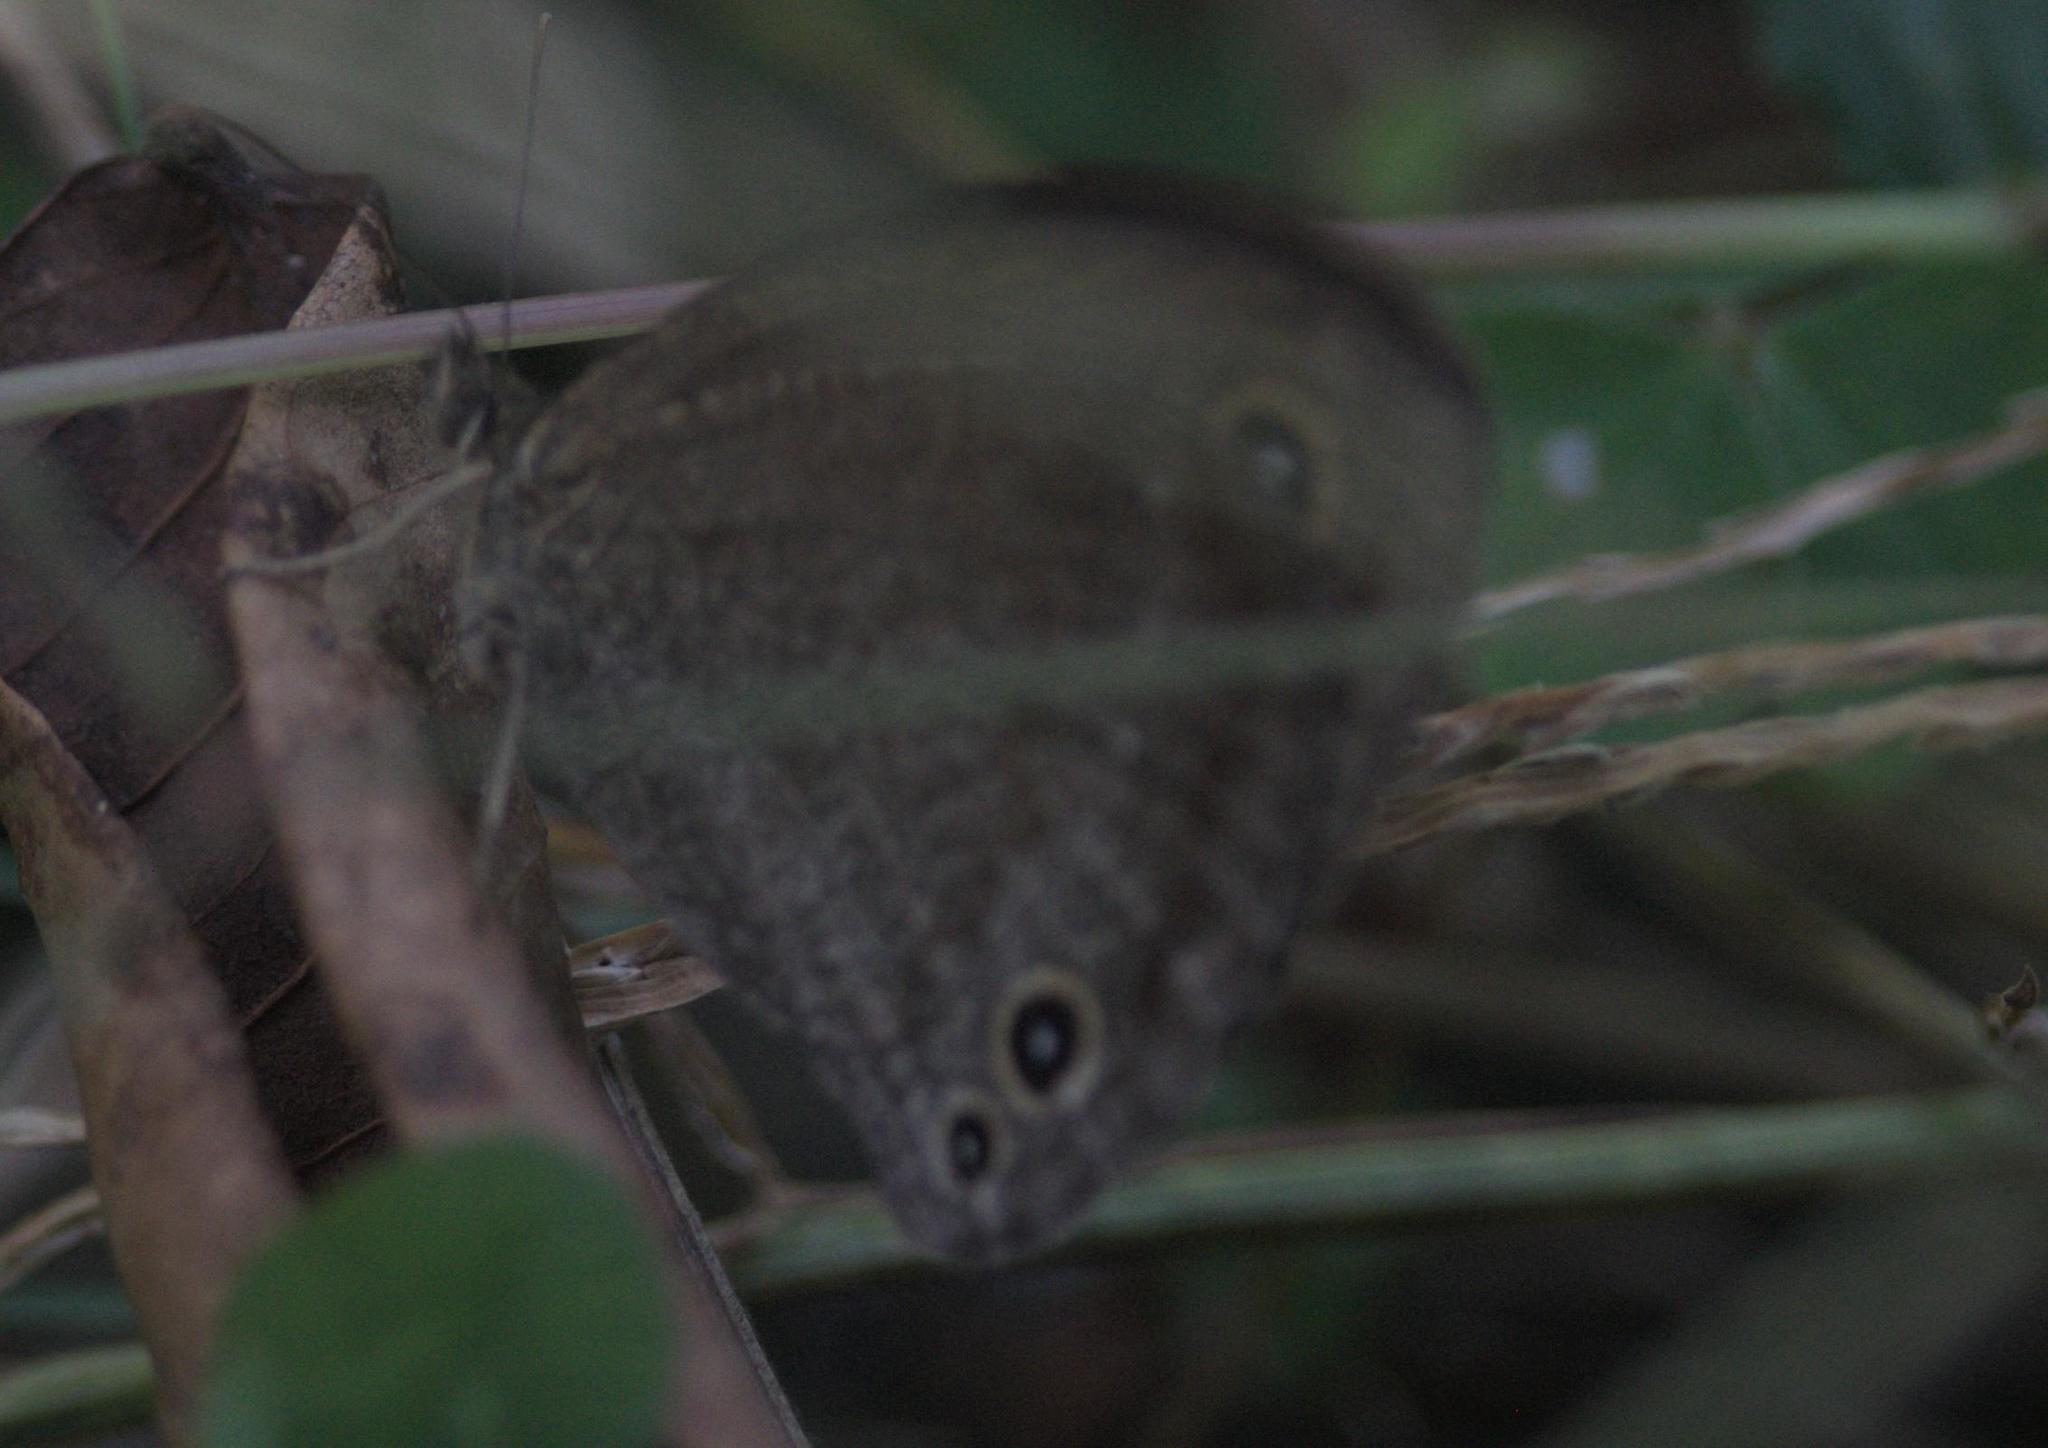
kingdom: Animalia
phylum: Arthropoda
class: Insecta
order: Lepidoptera
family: Nymphalidae
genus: Callerebia
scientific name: Callerebia hybrida
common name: Hybrid argus
